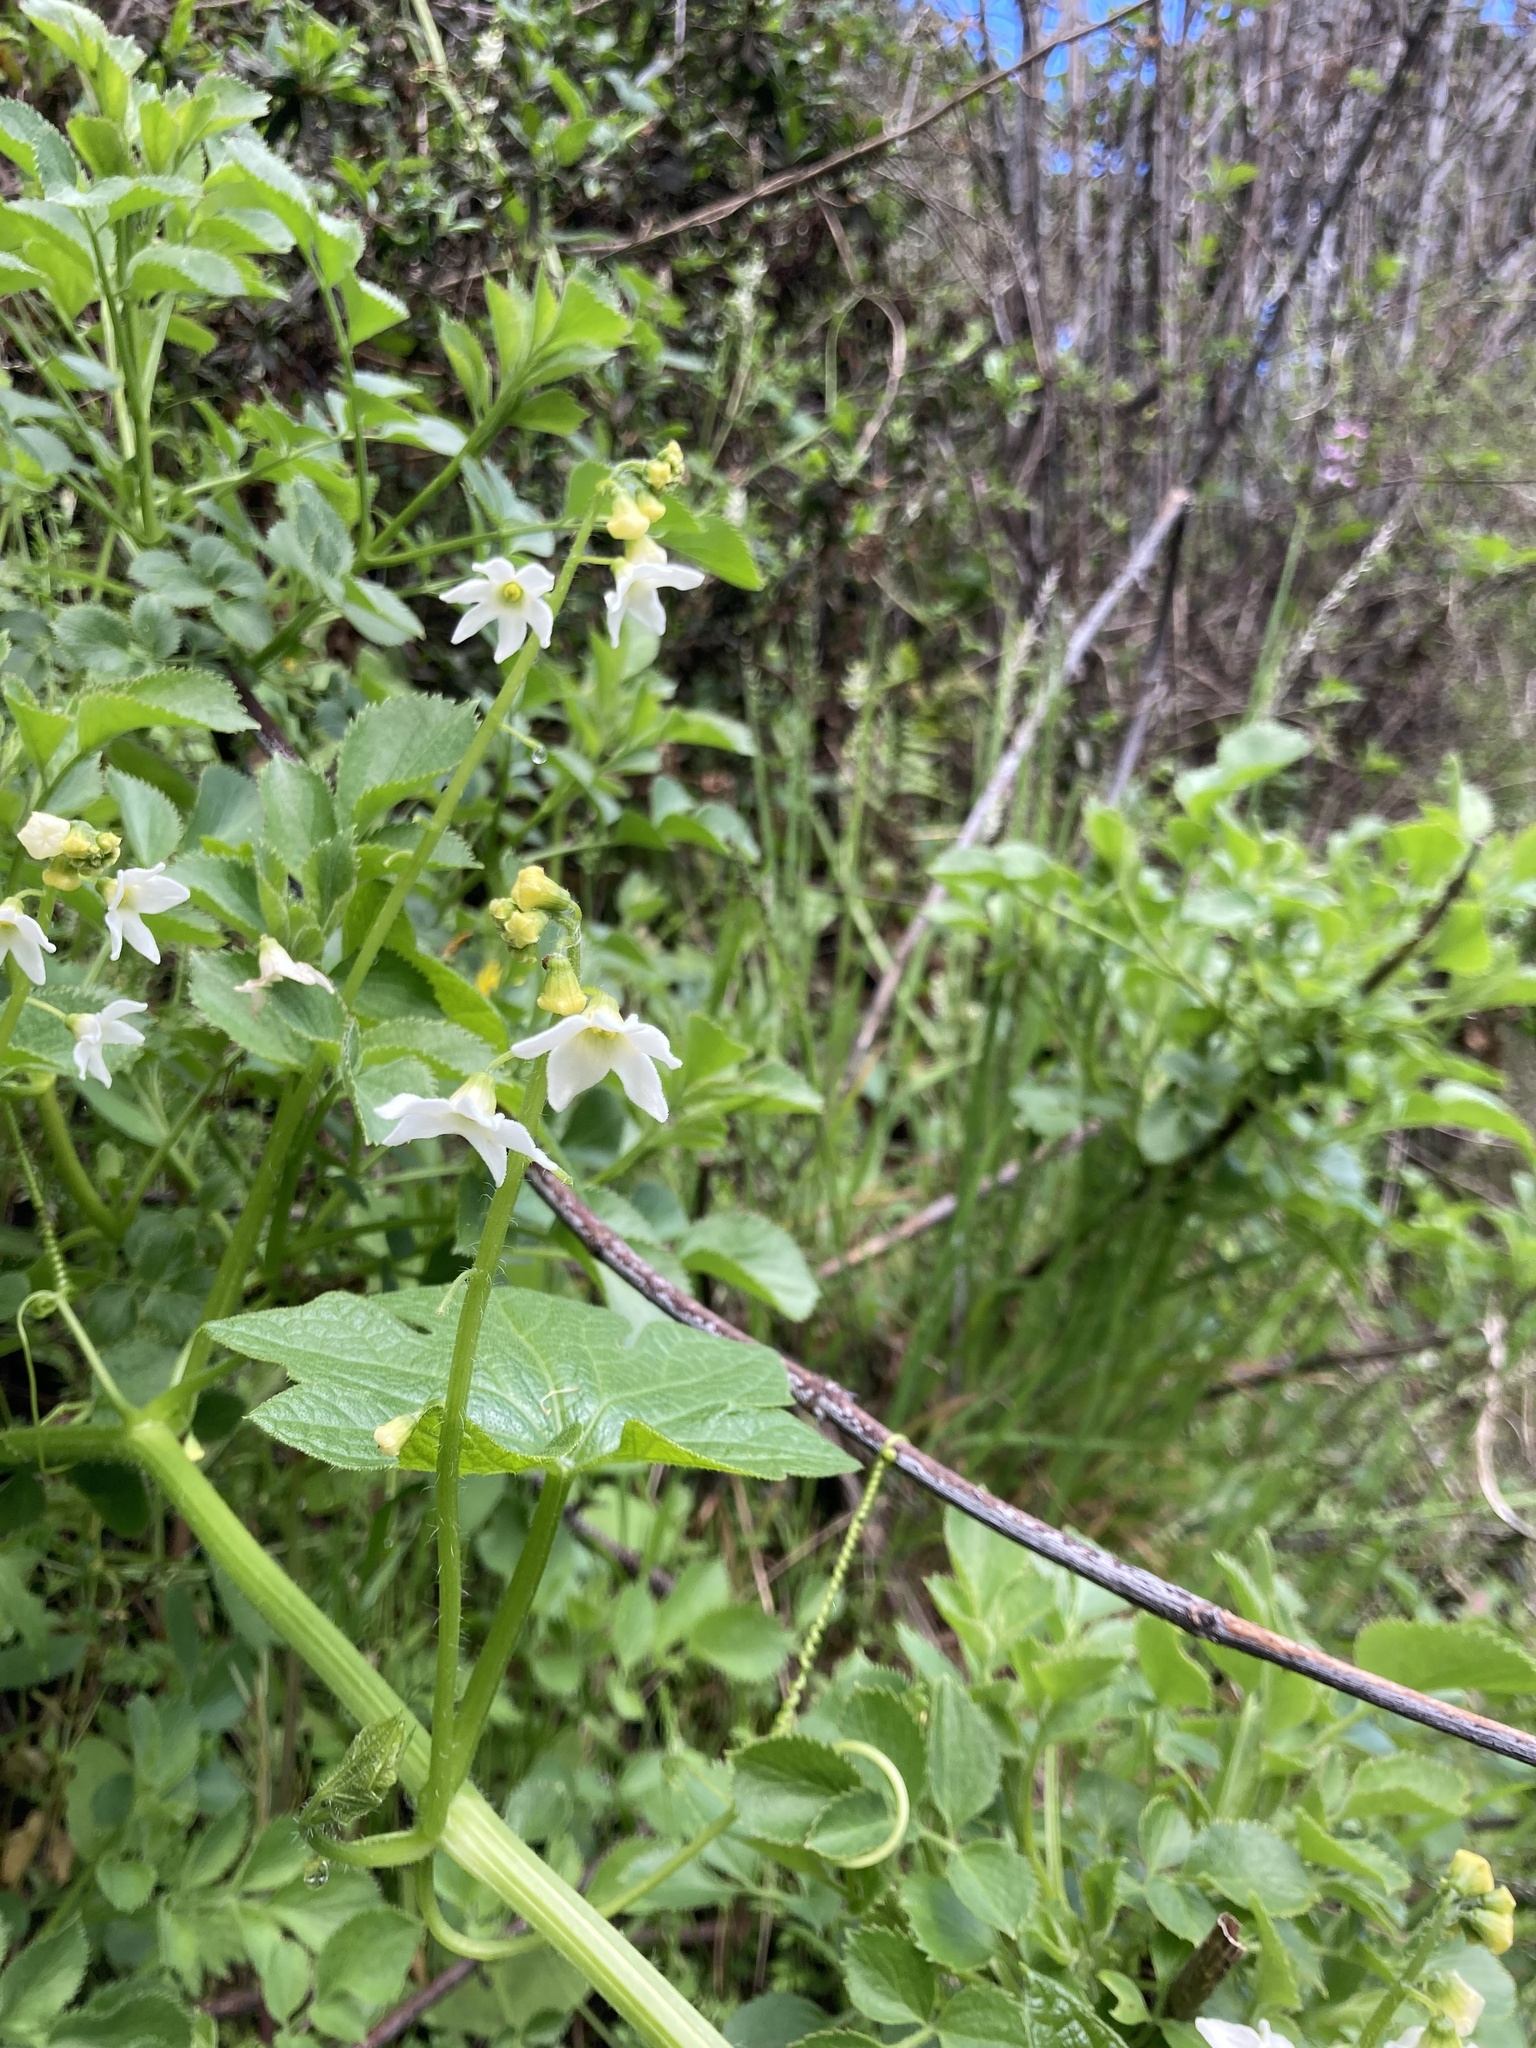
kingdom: Plantae
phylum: Tracheophyta
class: Magnoliopsida
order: Cucurbitales
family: Cucurbitaceae
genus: Marah
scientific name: Marah oregana
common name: Coastal manroot
